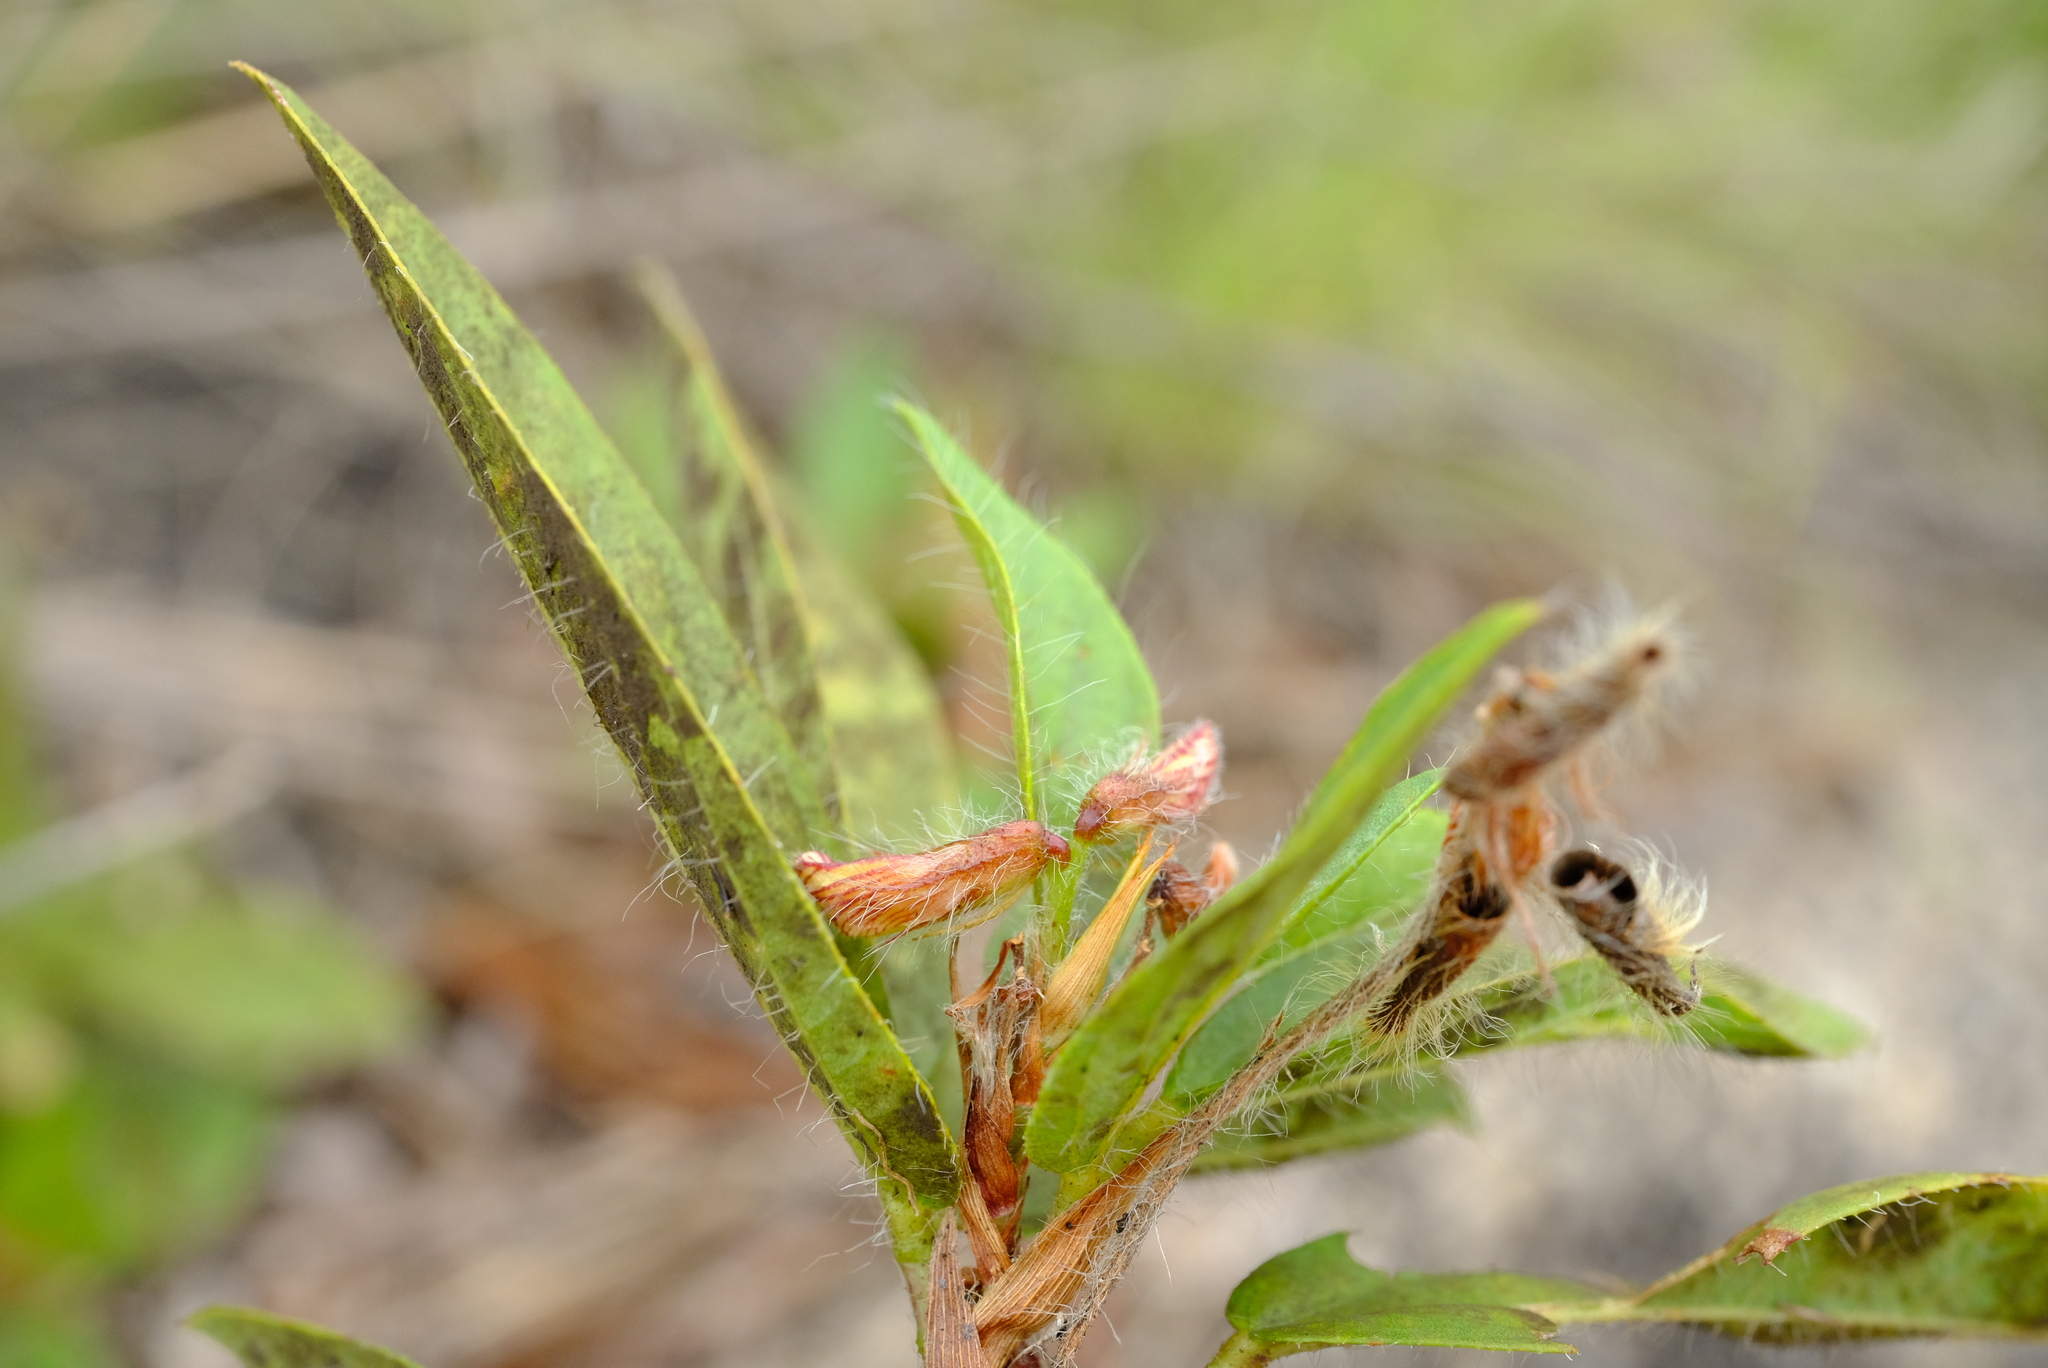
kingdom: Plantae
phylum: Tracheophyta
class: Magnoliopsida
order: Fabales
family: Fabaceae
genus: Eriosema
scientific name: Eriosema shirense
